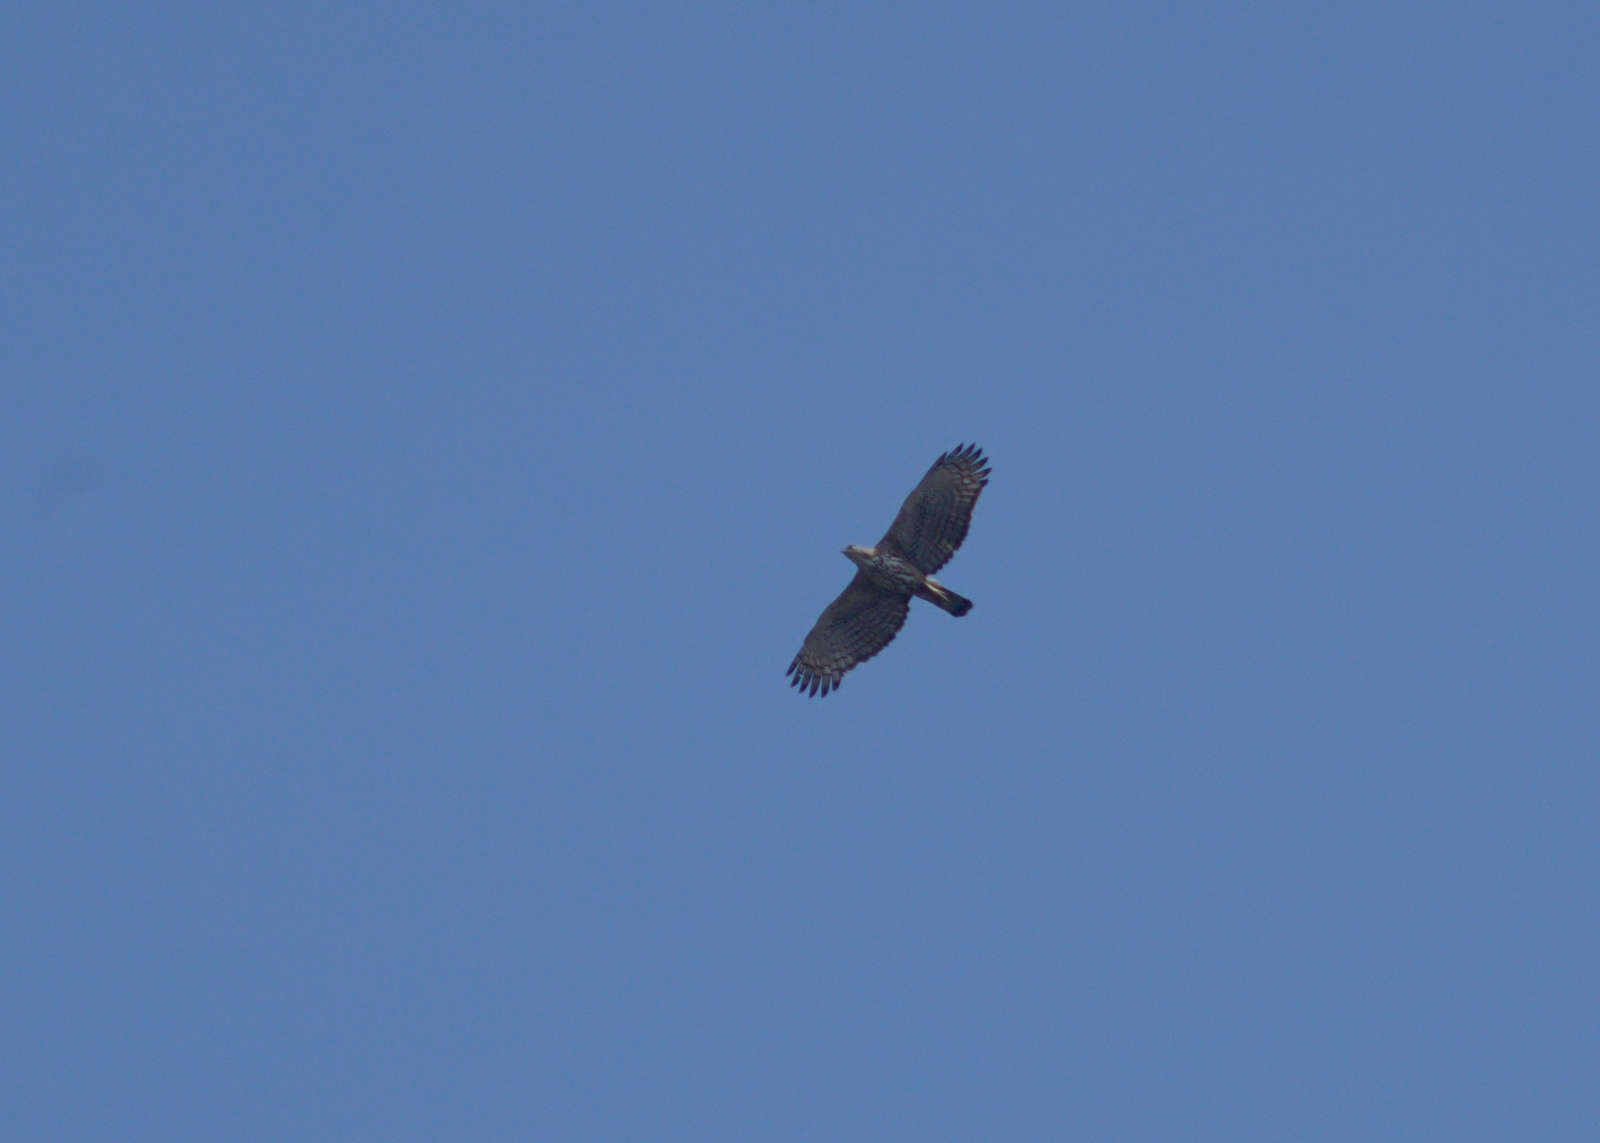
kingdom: Animalia
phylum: Chordata
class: Aves
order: Accipitriformes
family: Accipitridae
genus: Nisaetus
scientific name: Nisaetus cirrhatus
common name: Changeable hawk-eagle
